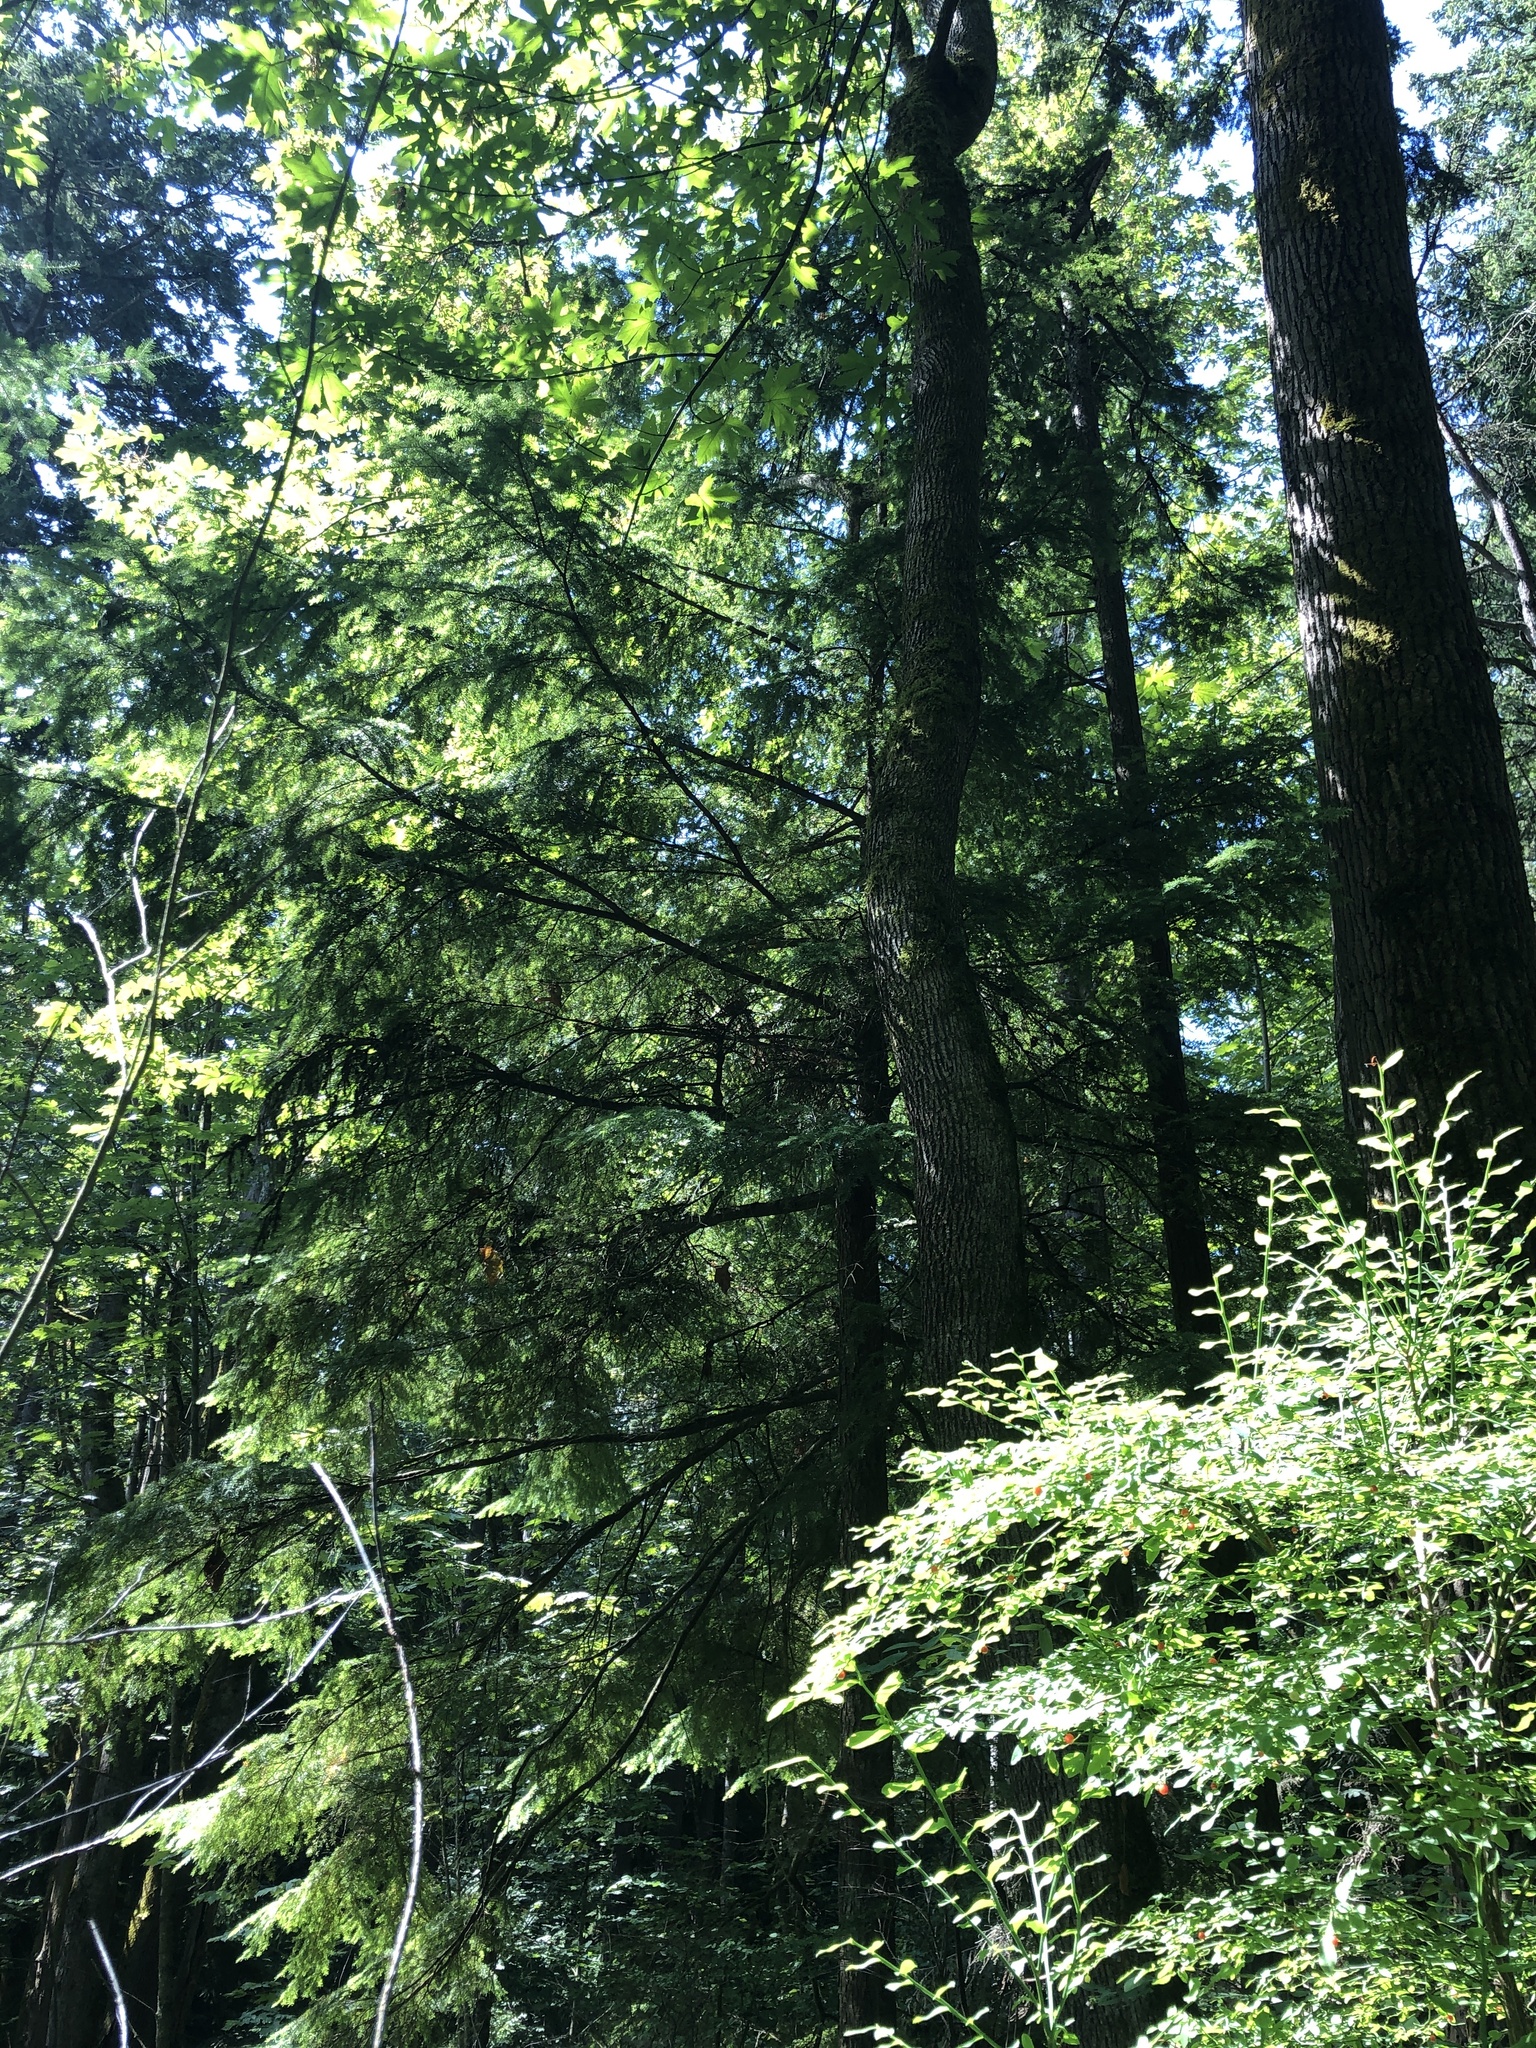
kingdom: Plantae
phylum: Tracheophyta
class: Pinopsida
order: Pinales
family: Pinaceae
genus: Tsuga
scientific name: Tsuga heterophylla
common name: Western hemlock
